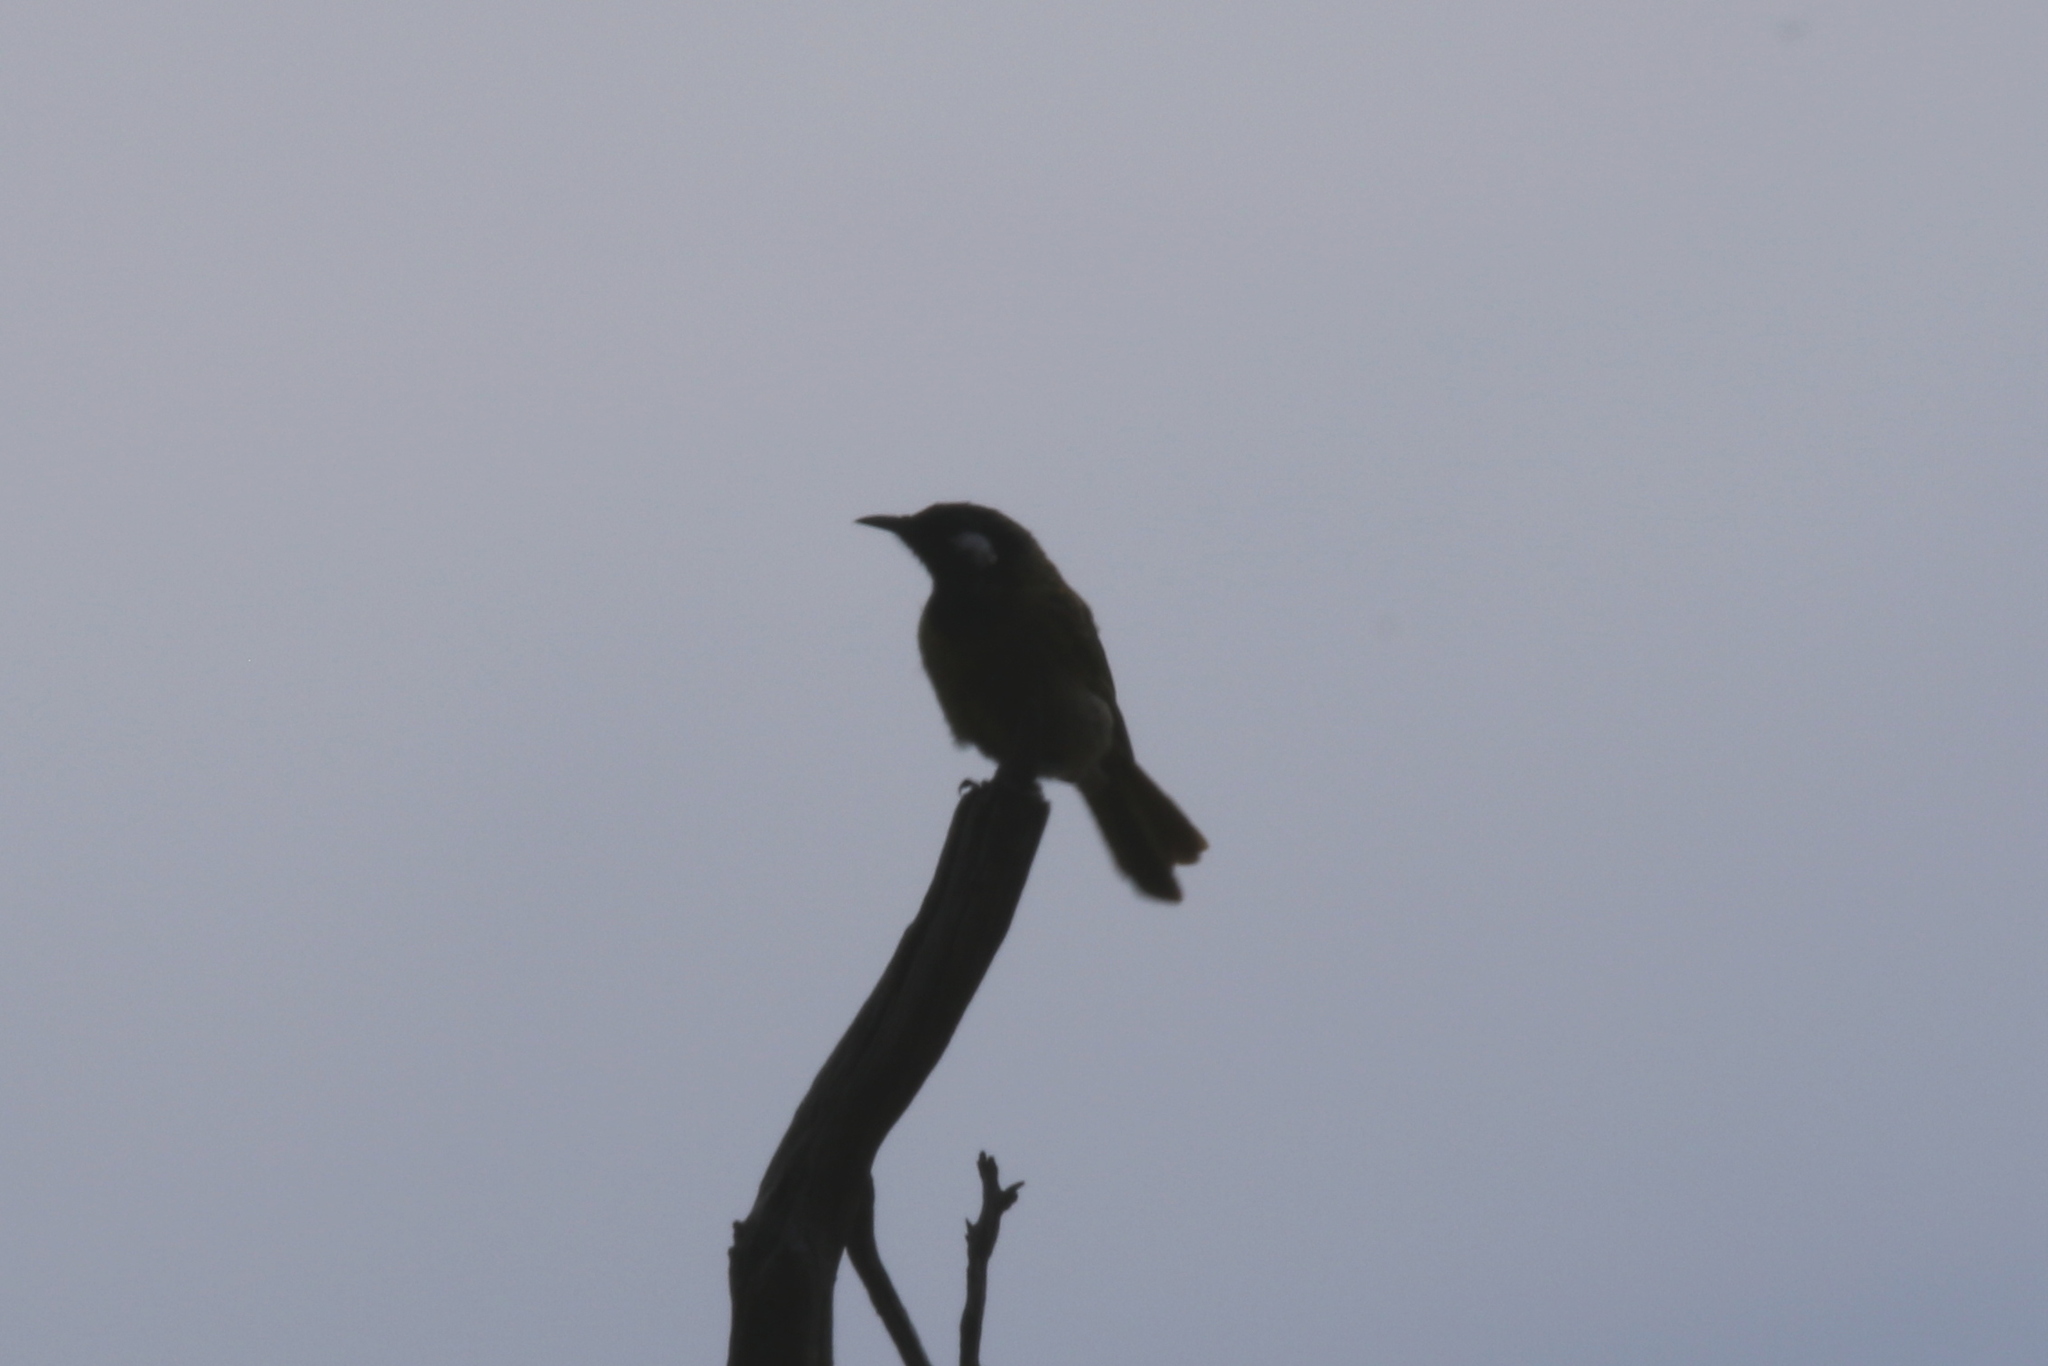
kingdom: Animalia
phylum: Chordata
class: Aves
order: Passeriformes
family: Meliphagidae
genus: Nesoptilotis
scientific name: Nesoptilotis leucotis
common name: White-eared honeyeater
